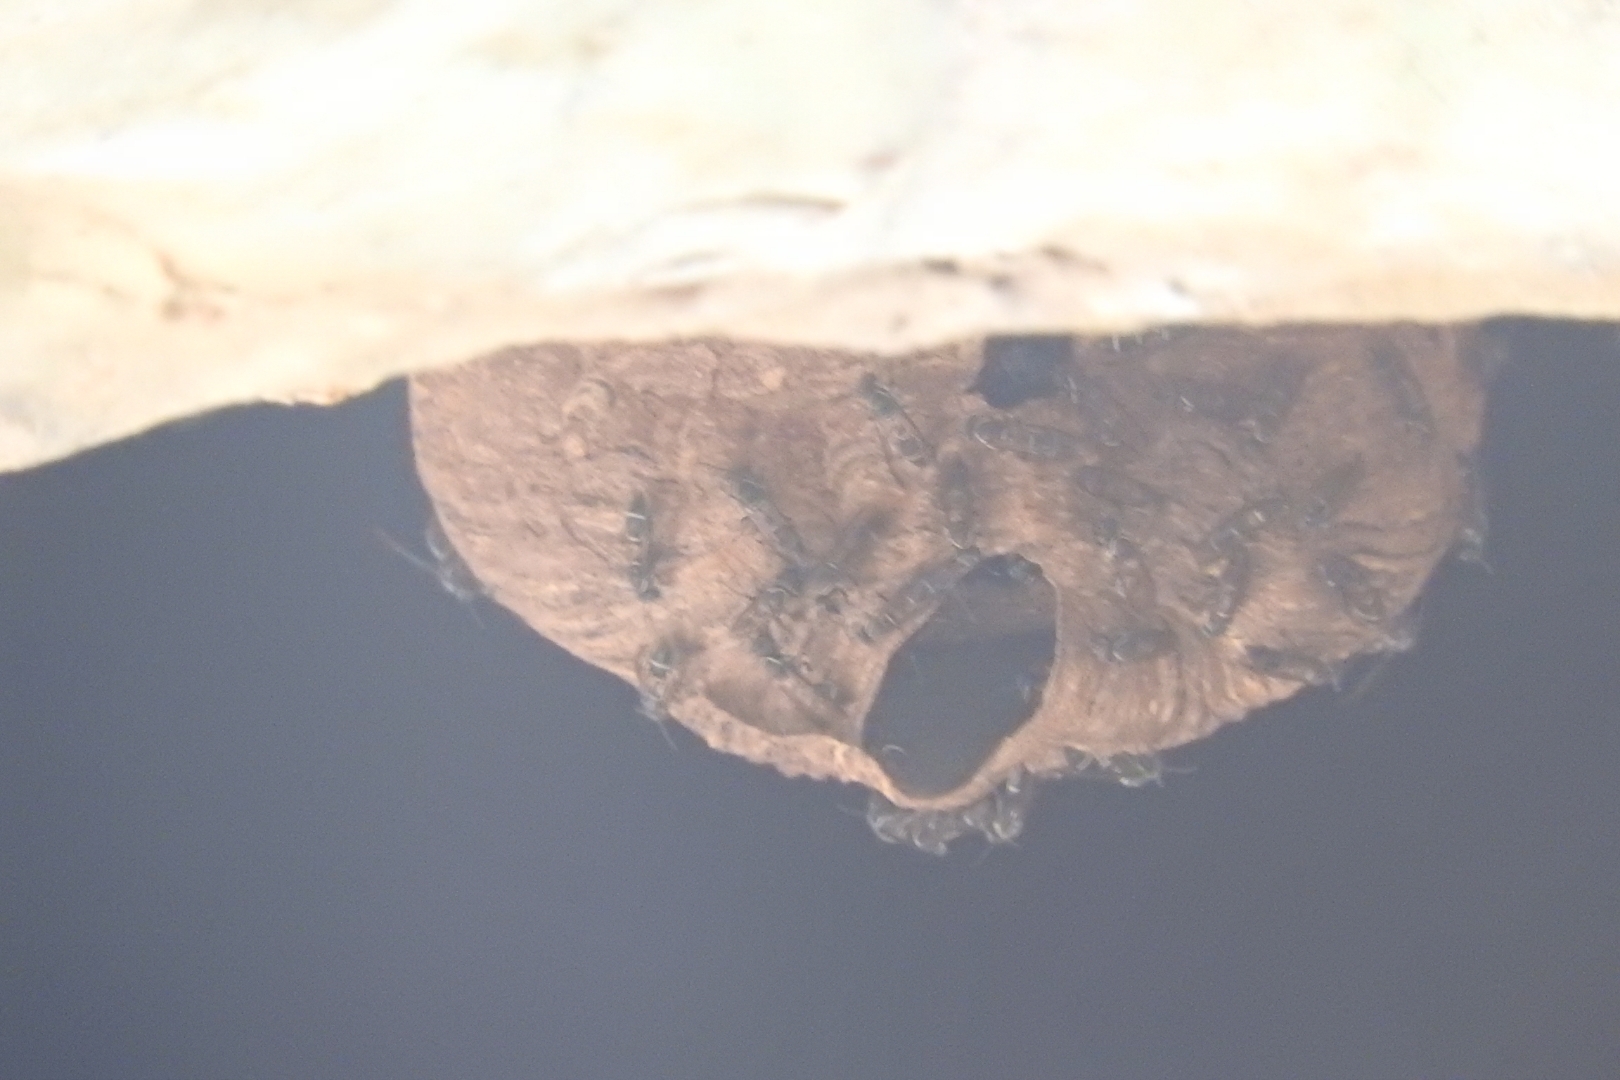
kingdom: Animalia
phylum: Arthropoda
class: Insecta
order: Hymenoptera
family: Eumenidae
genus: Polybia
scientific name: Polybia plebeja
